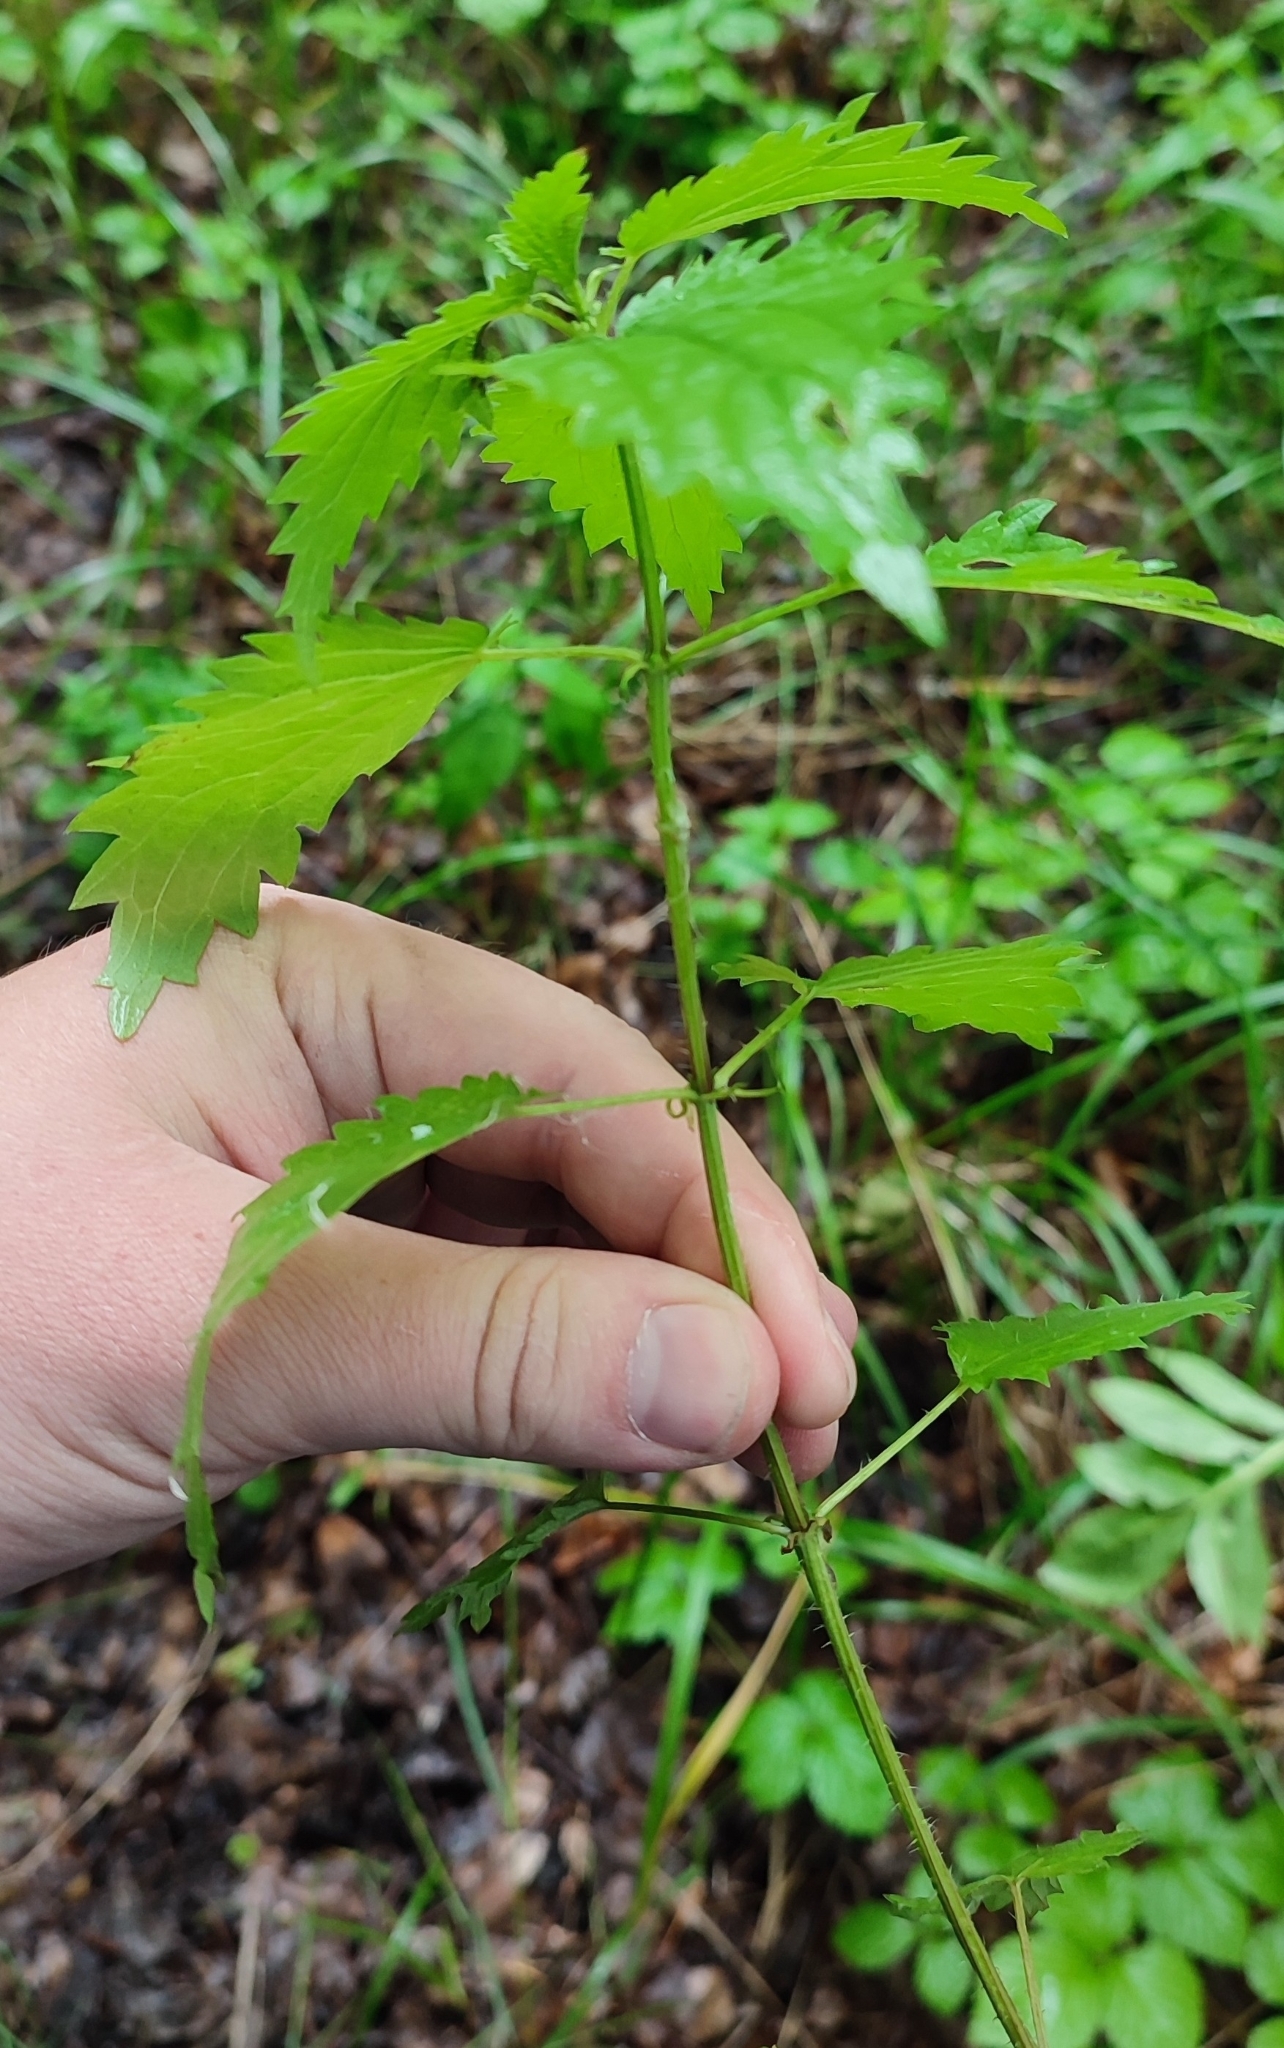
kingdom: Plantae
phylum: Tracheophyta
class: Magnoliopsida
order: Rosales
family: Urticaceae
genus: Urtica
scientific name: Urtica dioica
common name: Common nettle
